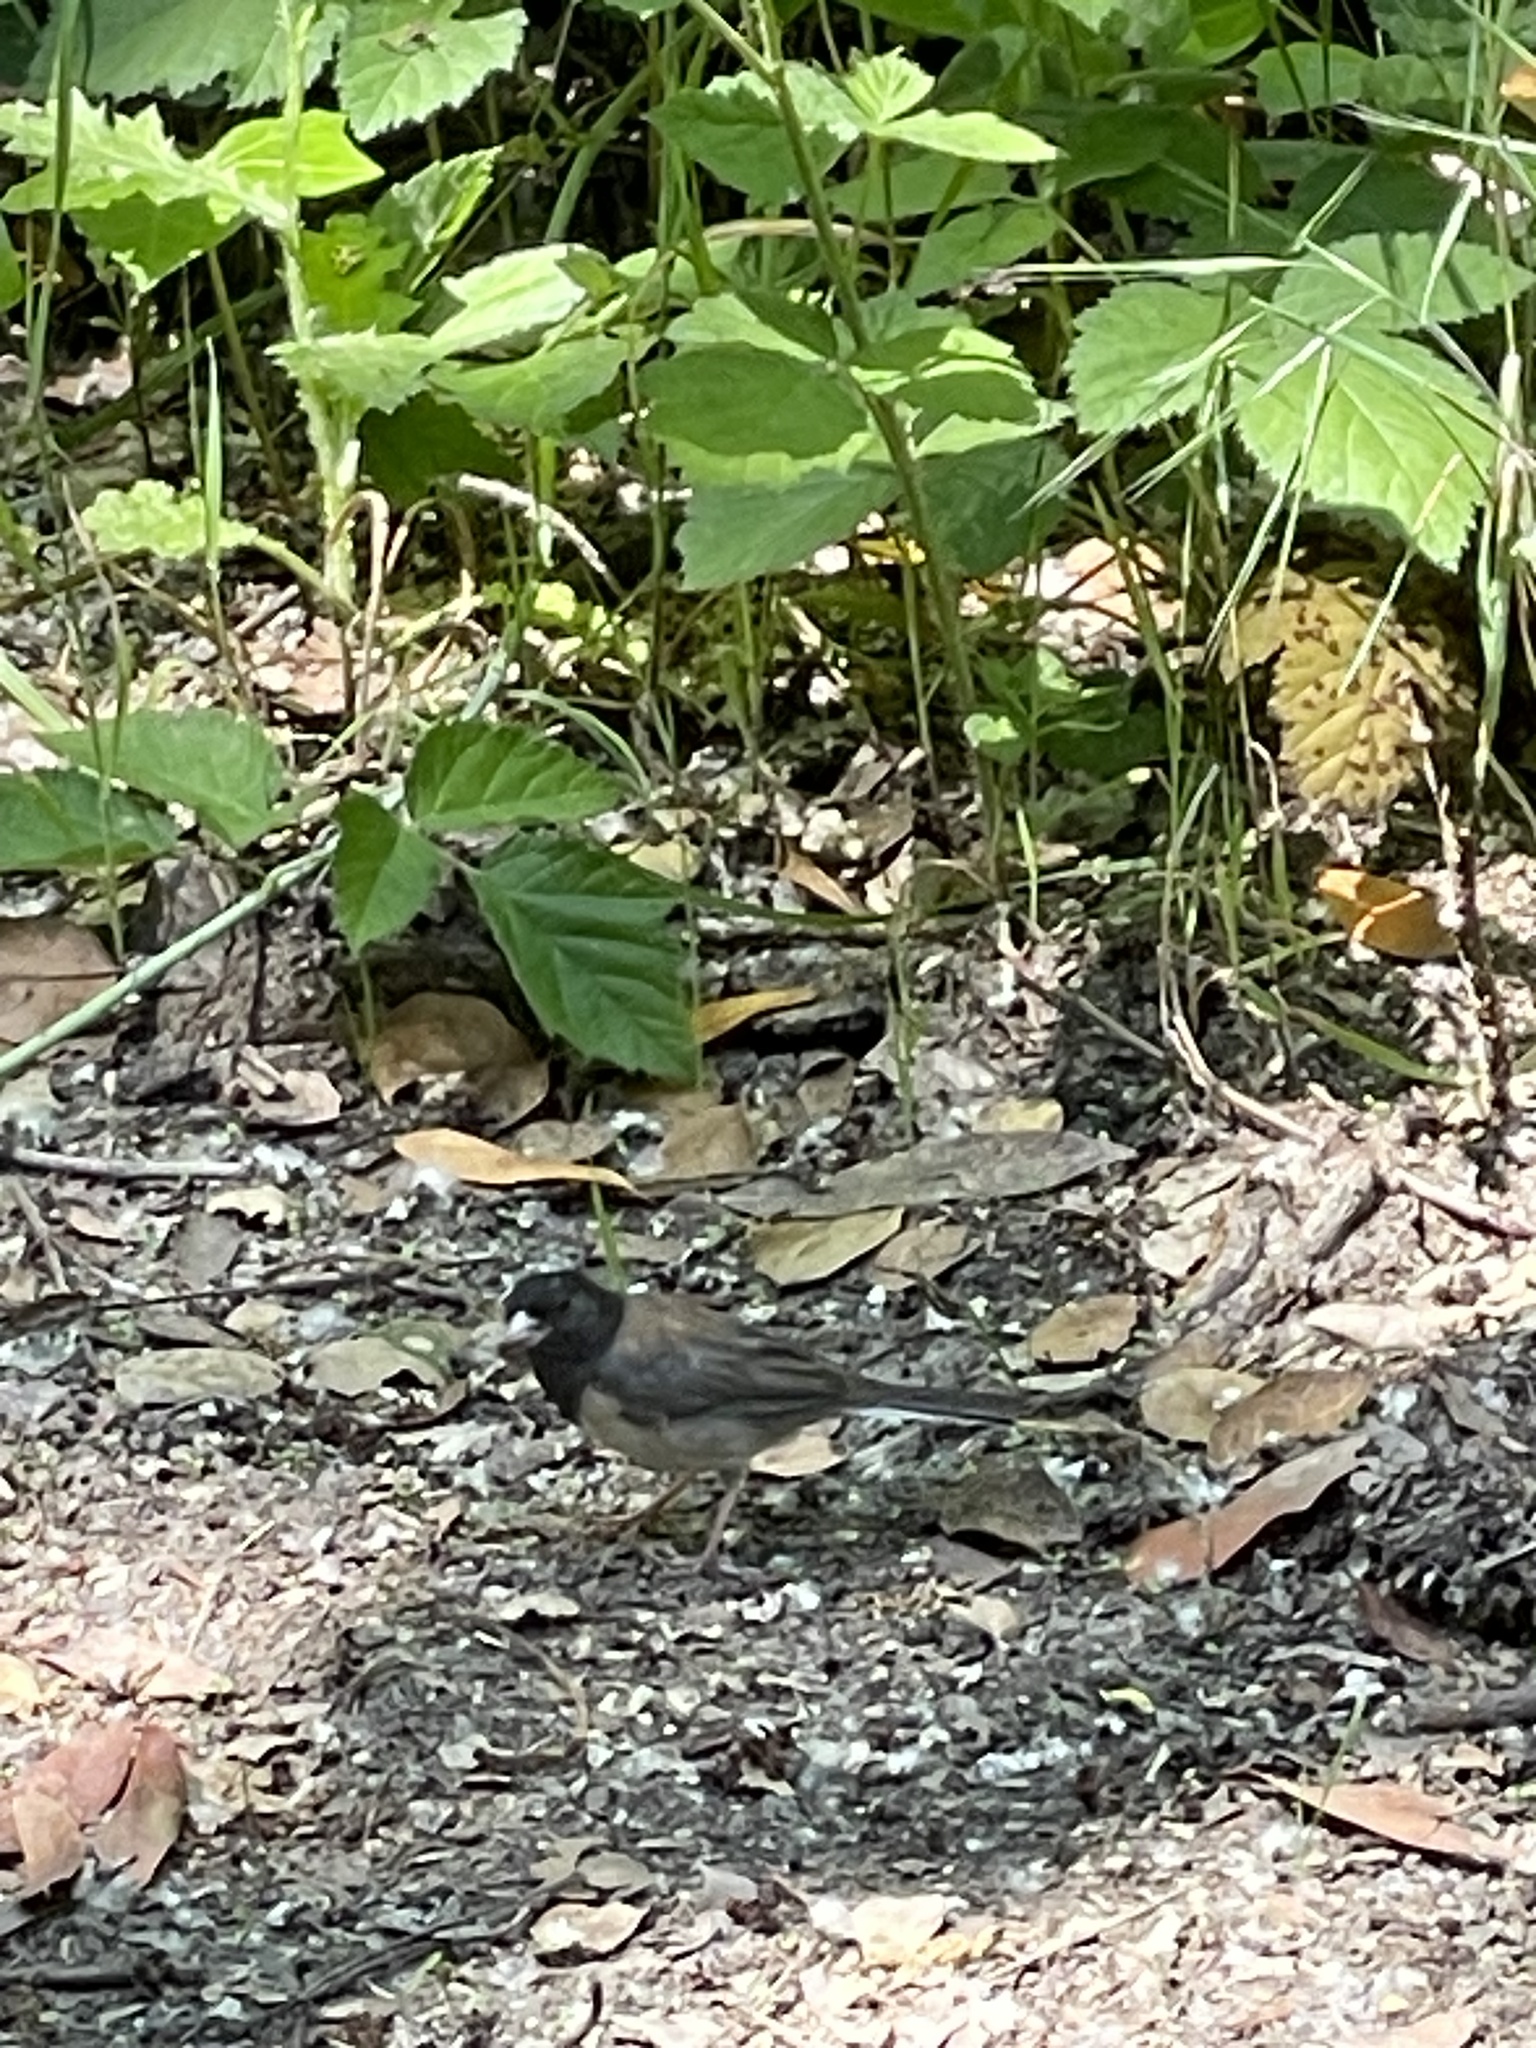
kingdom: Animalia
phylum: Chordata
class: Aves
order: Passeriformes
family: Passerellidae
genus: Junco
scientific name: Junco hyemalis
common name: Dark-eyed junco
